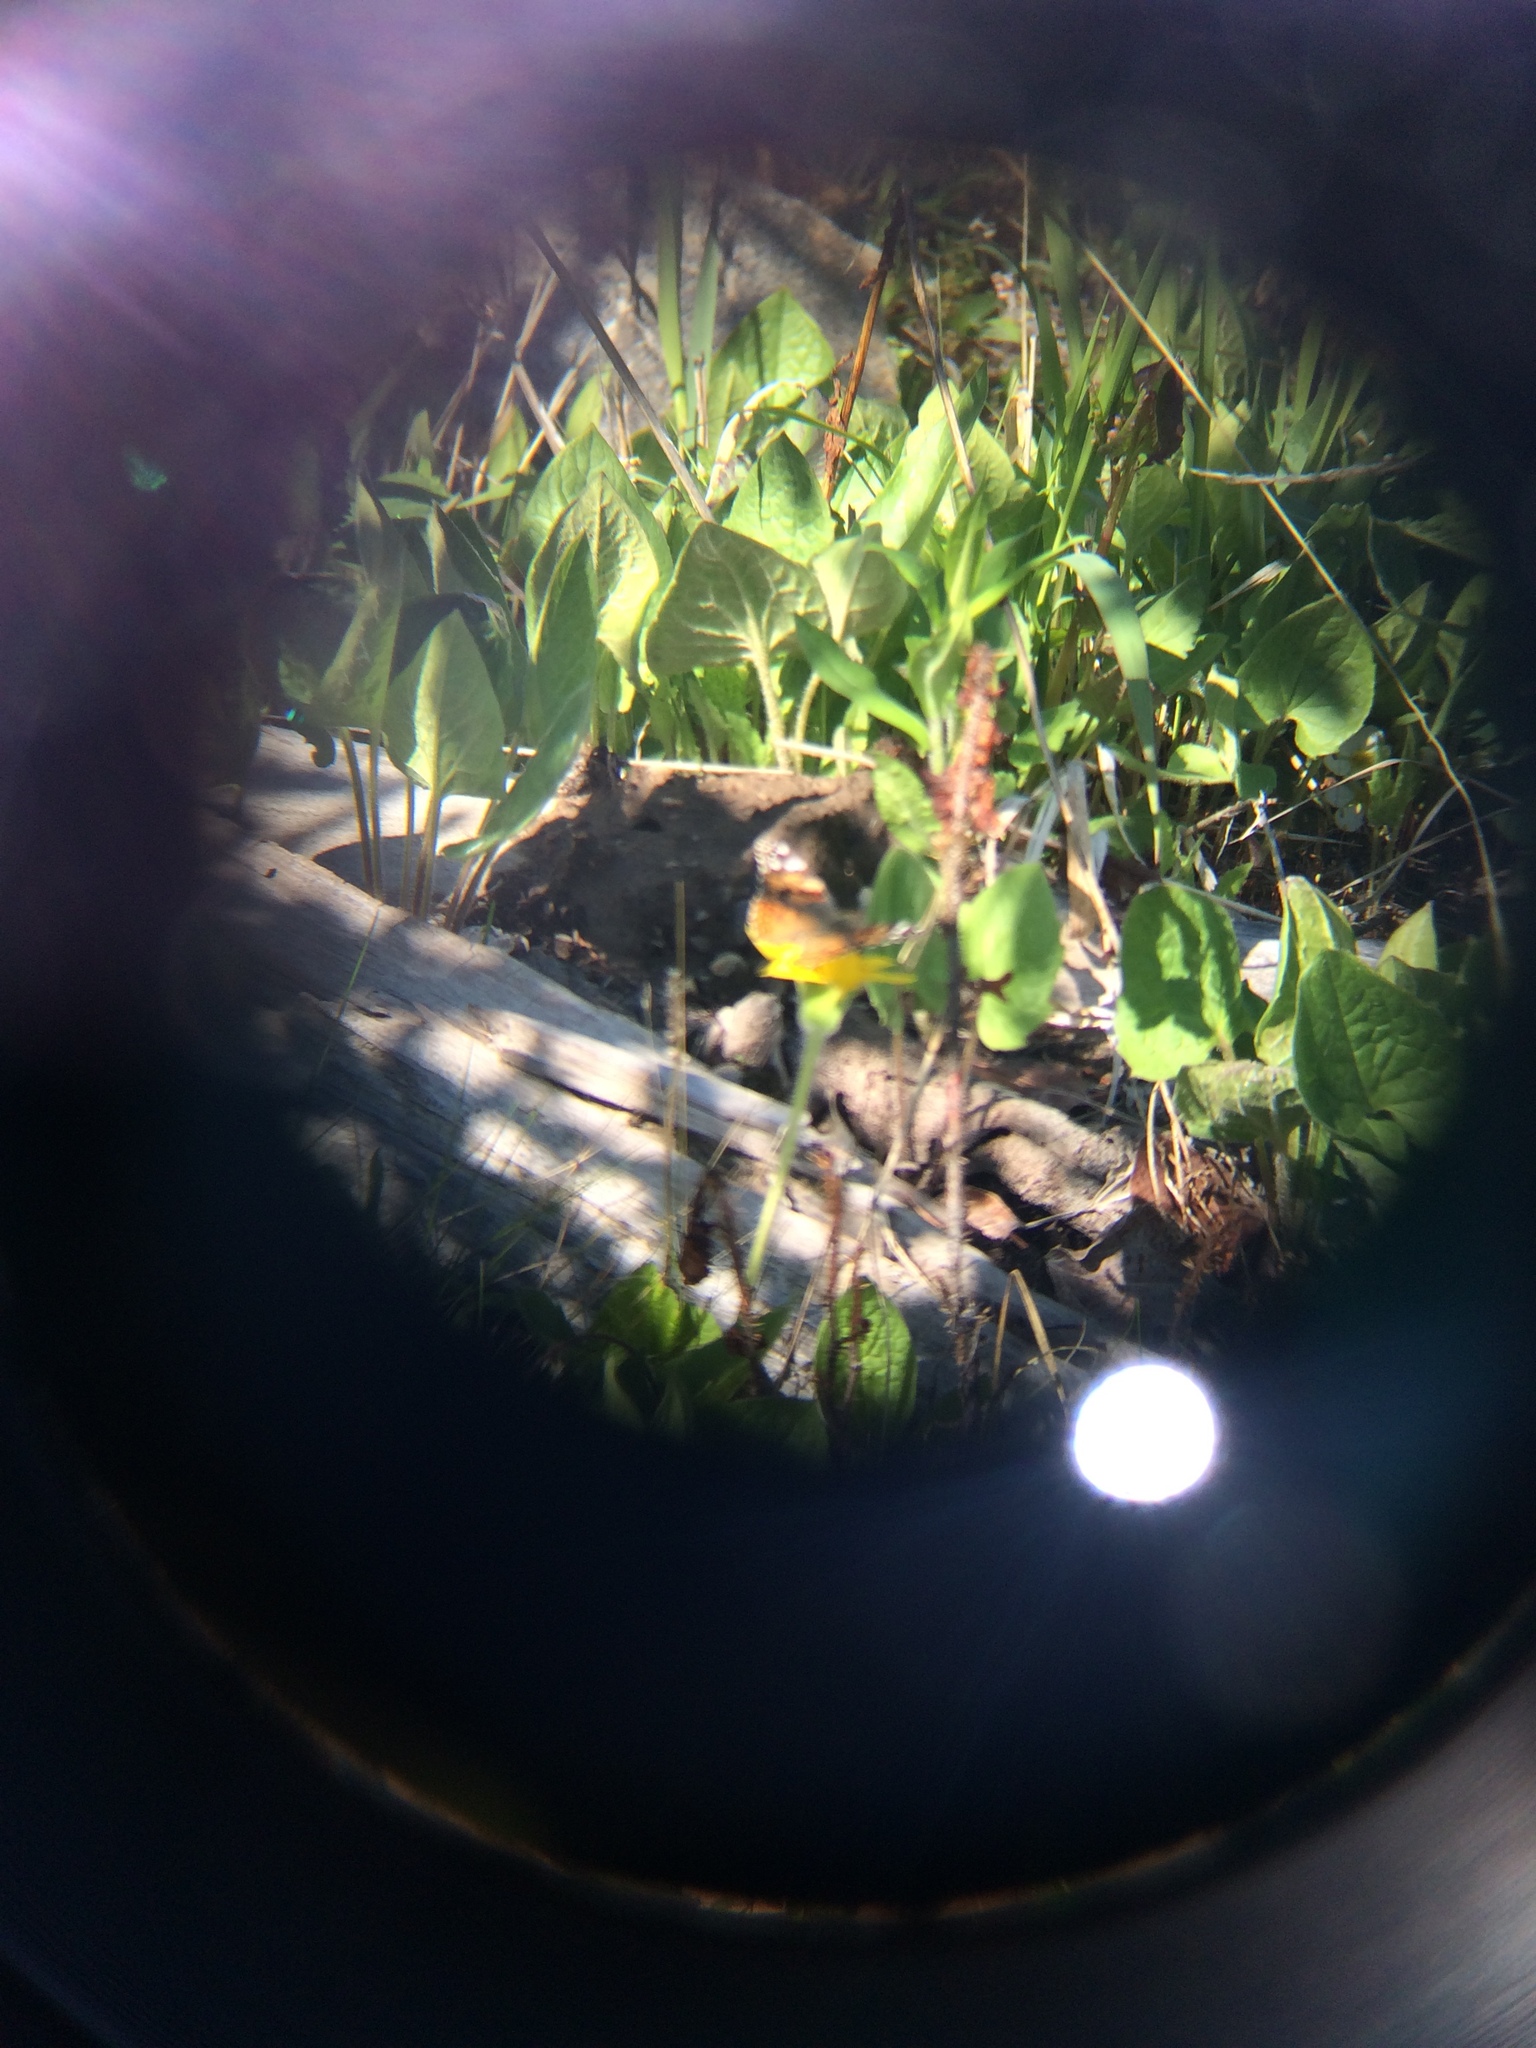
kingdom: Animalia
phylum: Arthropoda
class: Insecta
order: Lepidoptera
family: Nymphalidae
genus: Vanessa
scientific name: Vanessa cardui
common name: Painted lady
